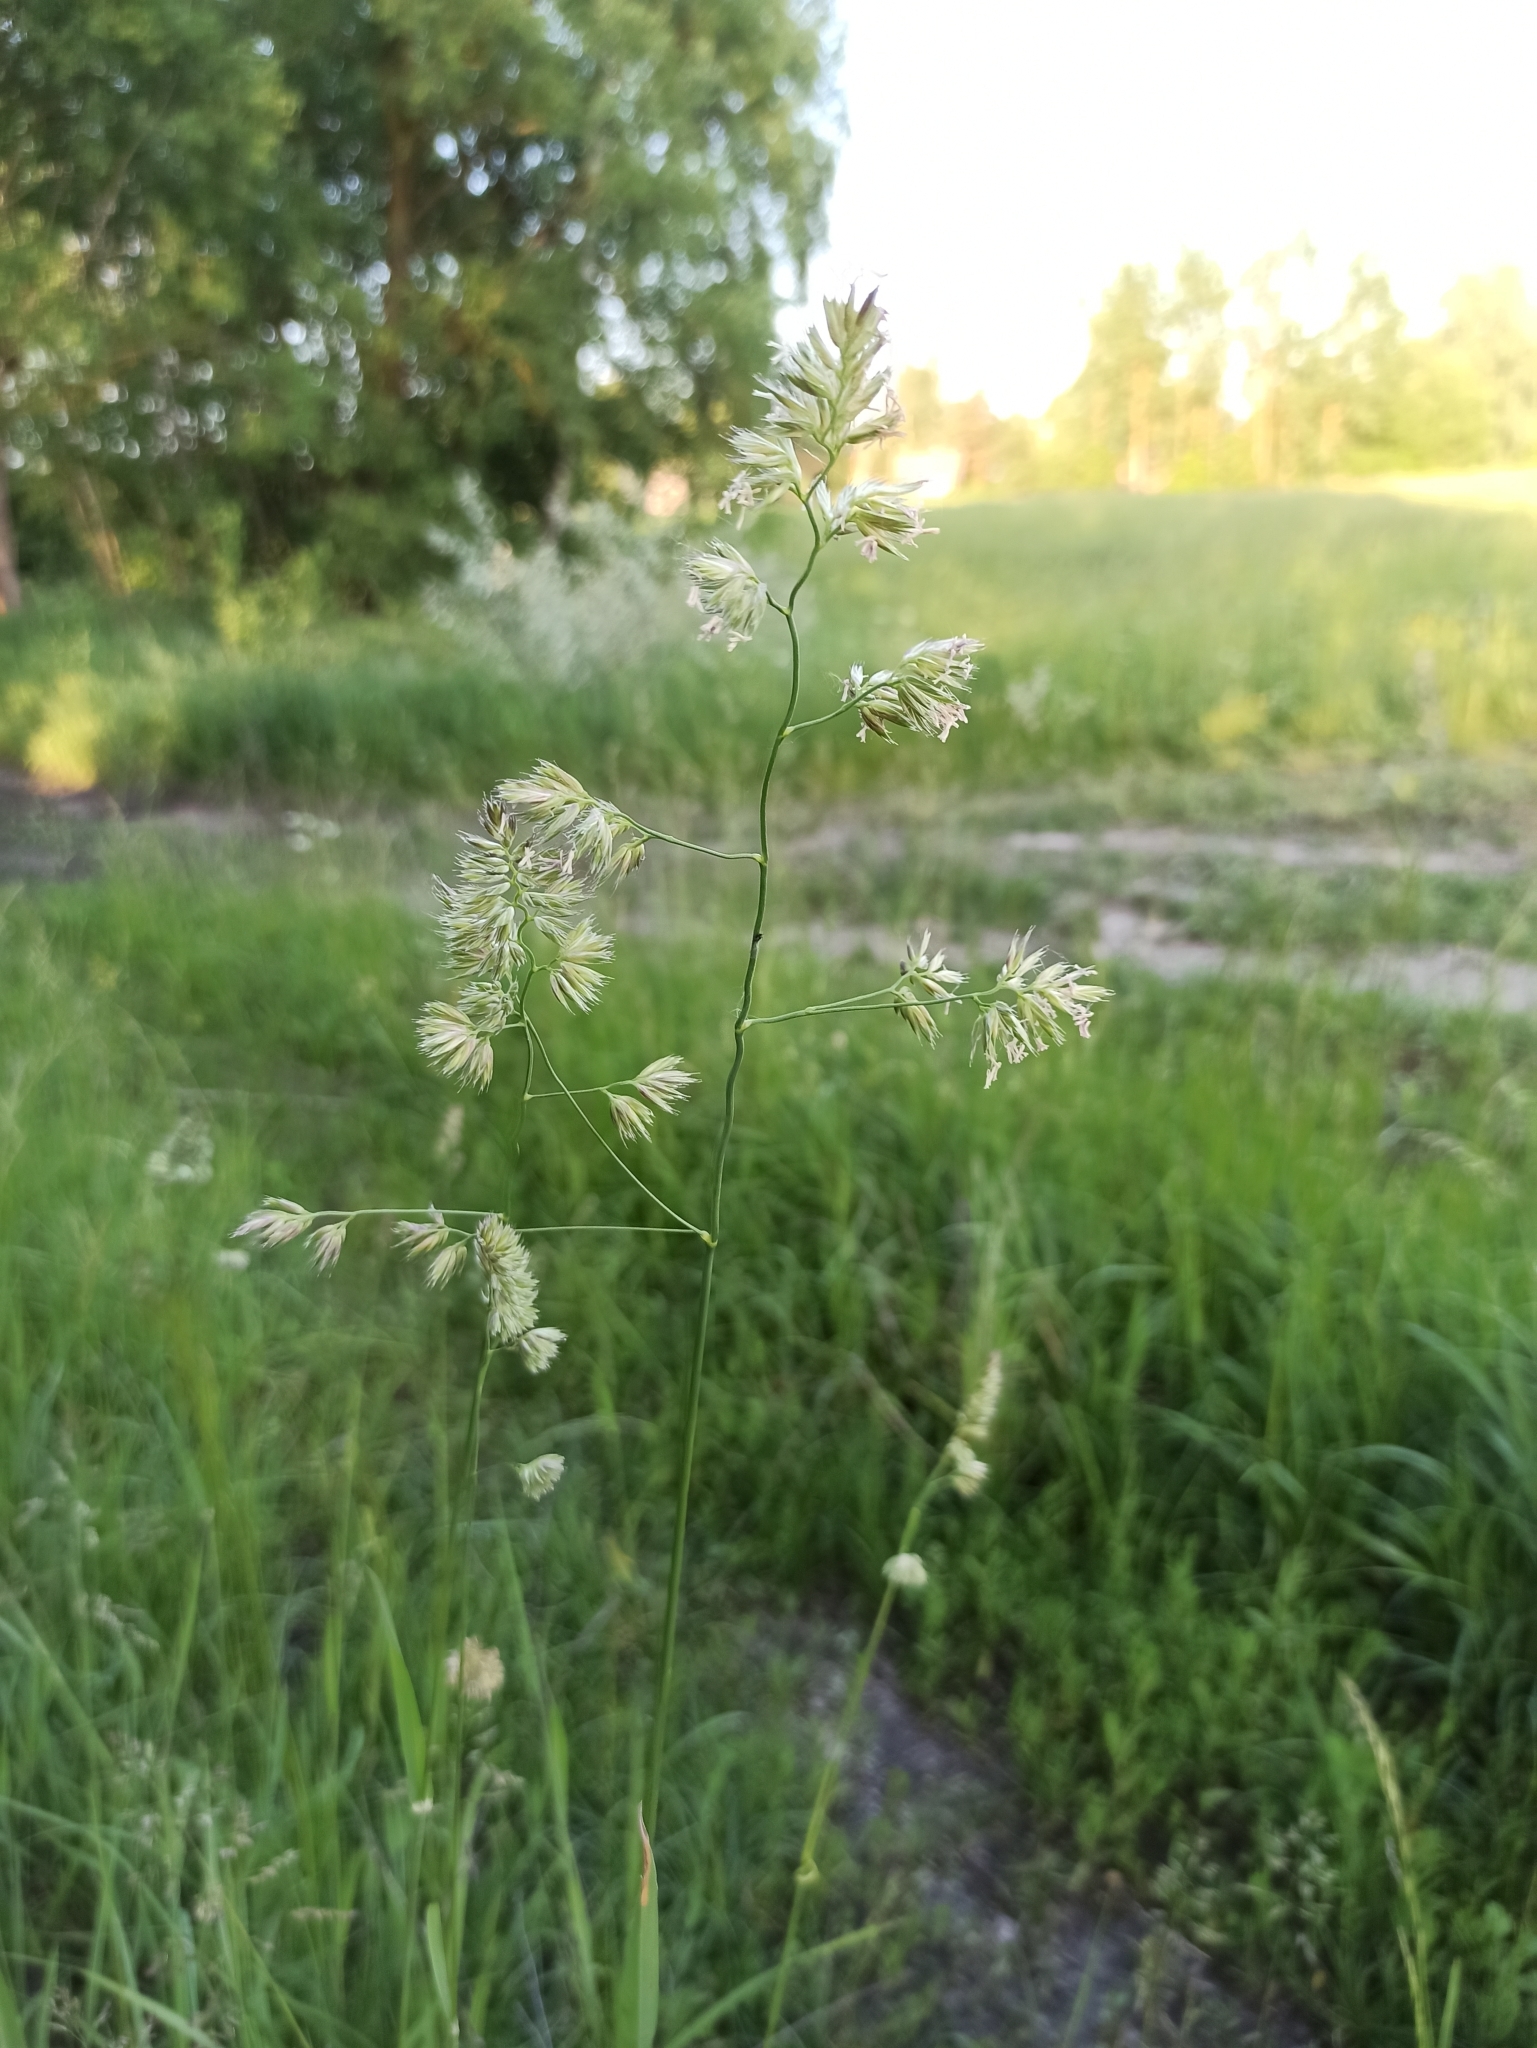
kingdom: Plantae
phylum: Tracheophyta
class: Liliopsida
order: Poales
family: Poaceae
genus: Dactylis
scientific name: Dactylis glomerata
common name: Orchardgrass
